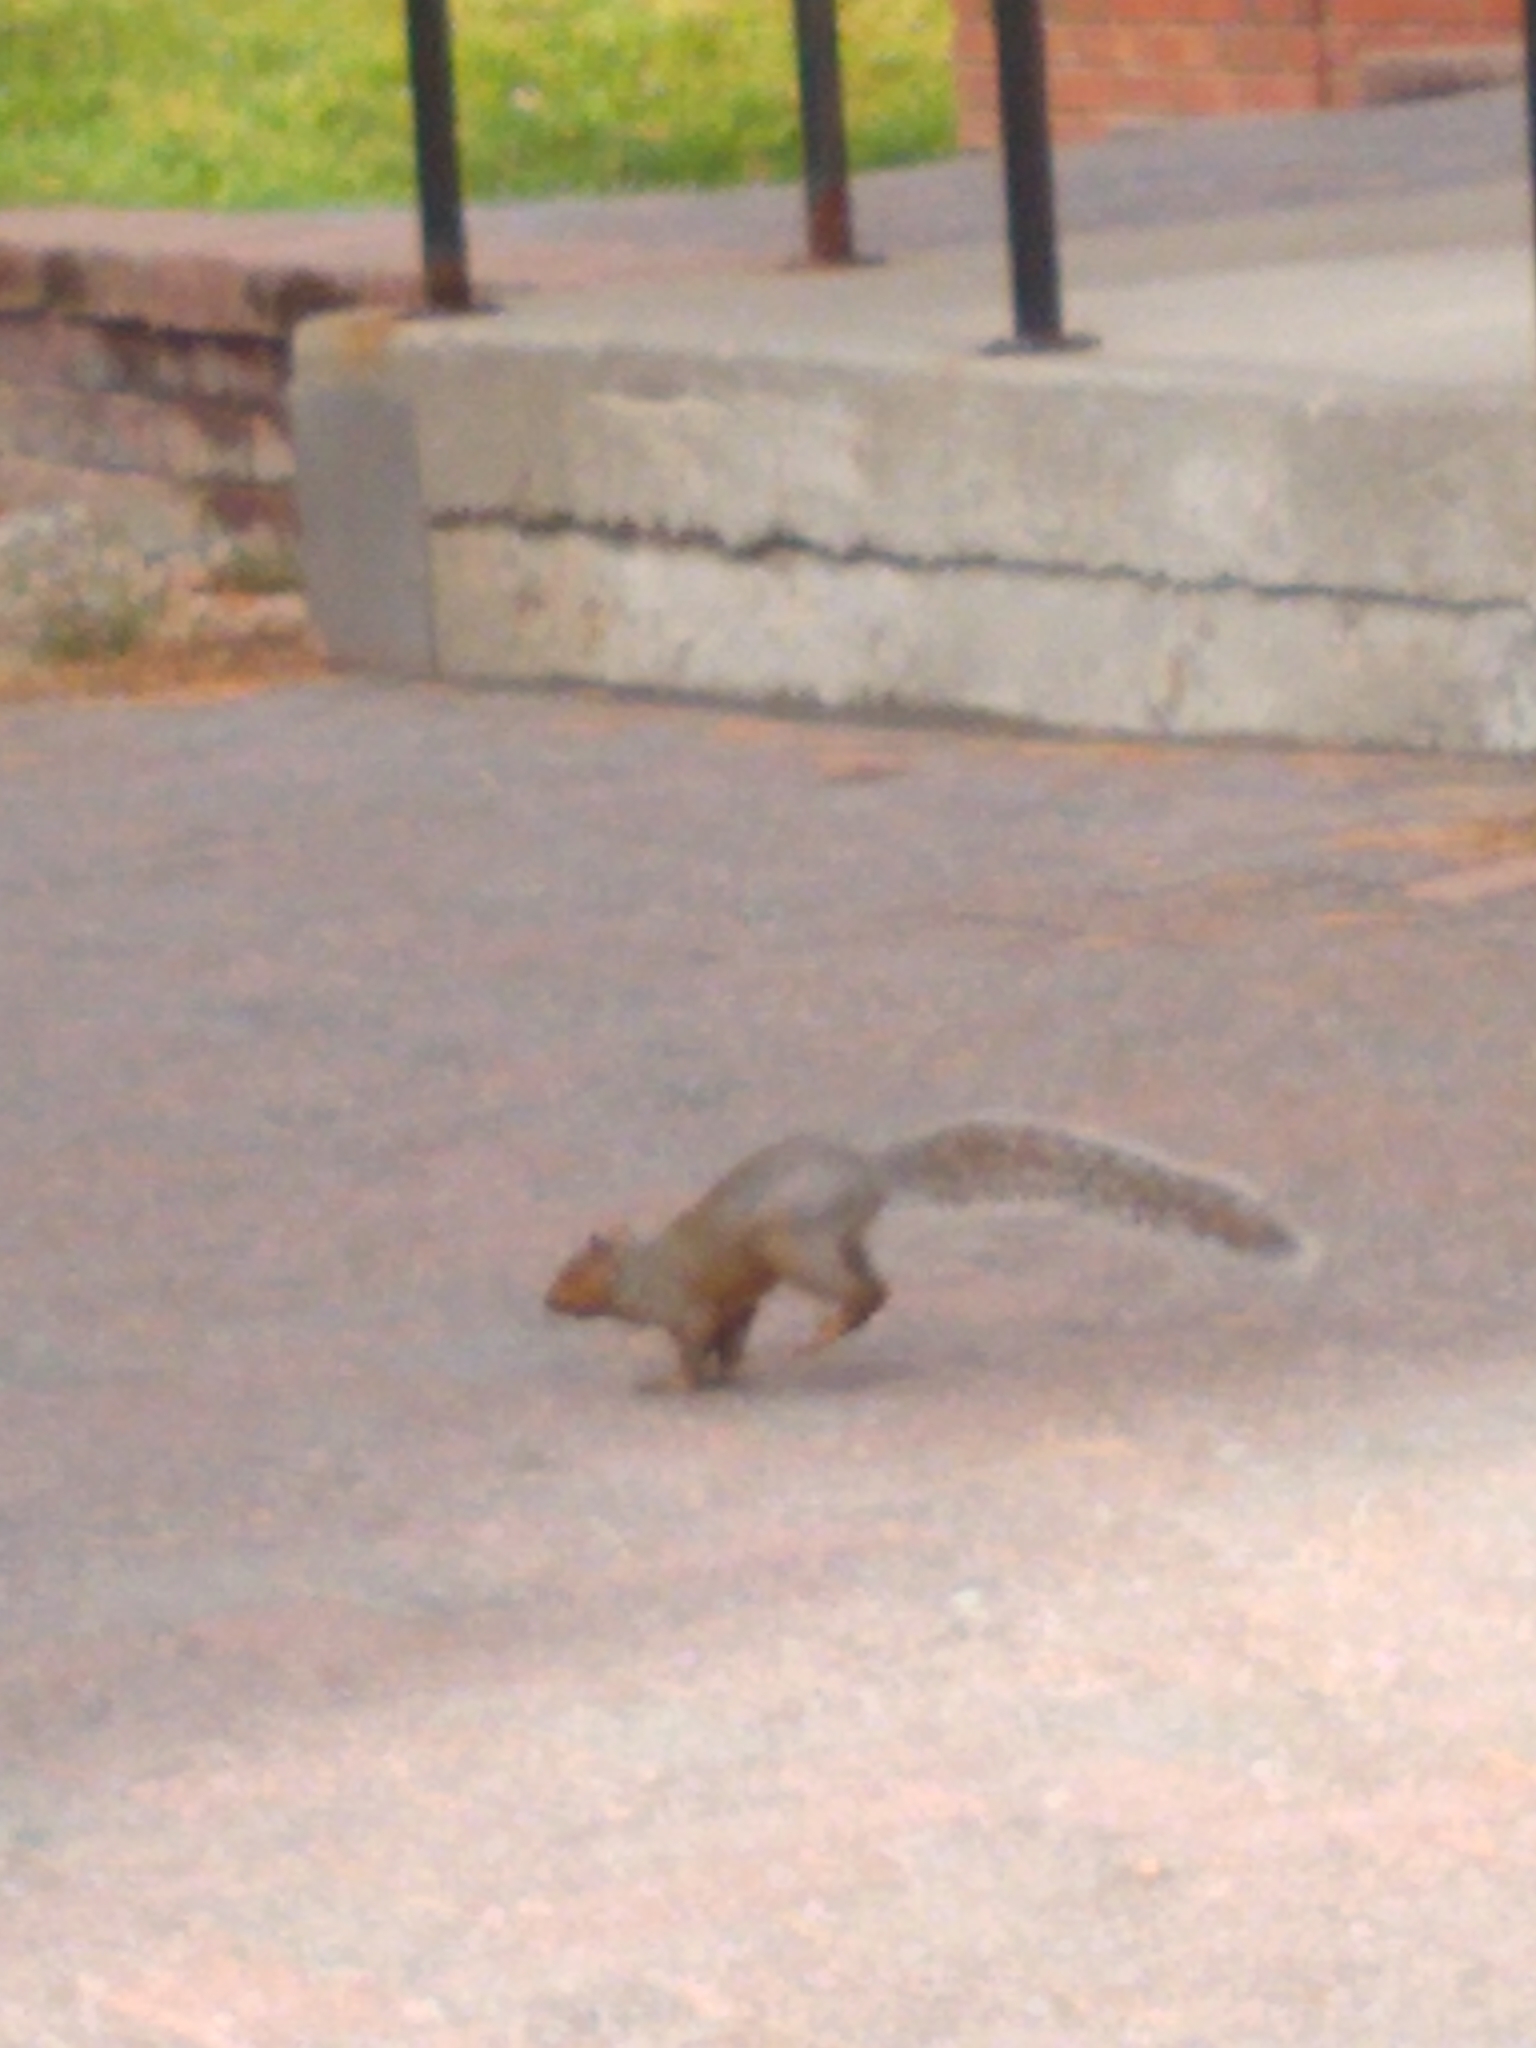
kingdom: Animalia
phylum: Chordata
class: Mammalia
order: Rodentia
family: Sciuridae
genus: Sciurus
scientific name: Sciurus carolinensis
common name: Eastern gray squirrel
